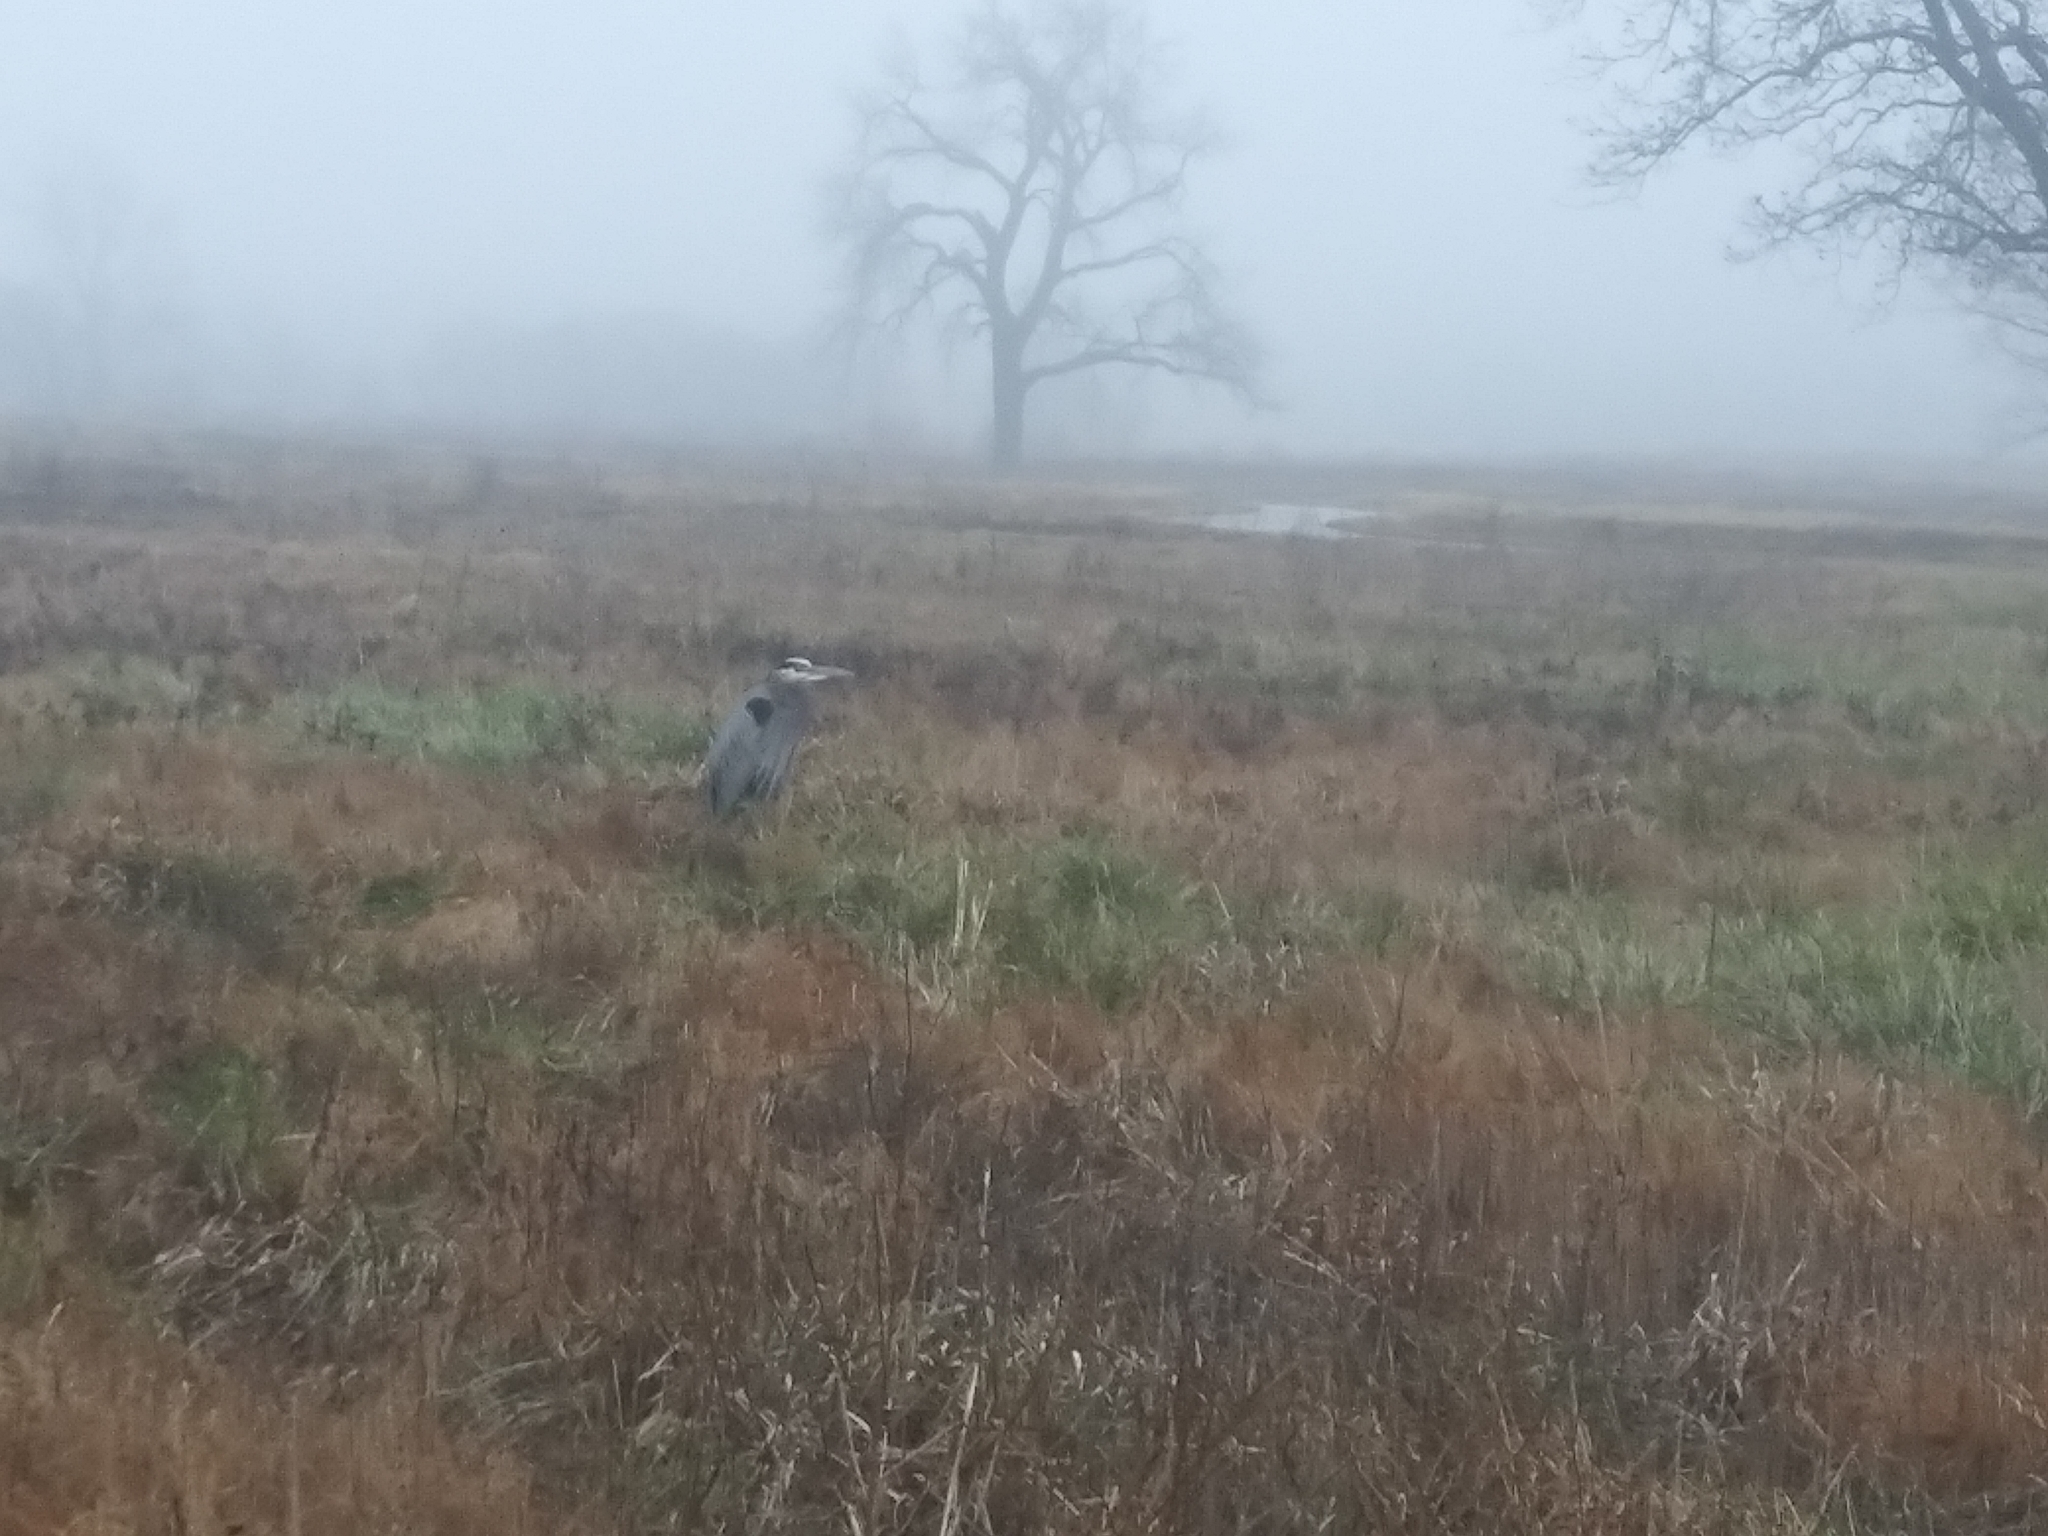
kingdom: Animalia
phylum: Chordata
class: Aves
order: Pelecaniformes
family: Ardeidae
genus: Ardea
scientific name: Ardea herodias
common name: Great blue heron
